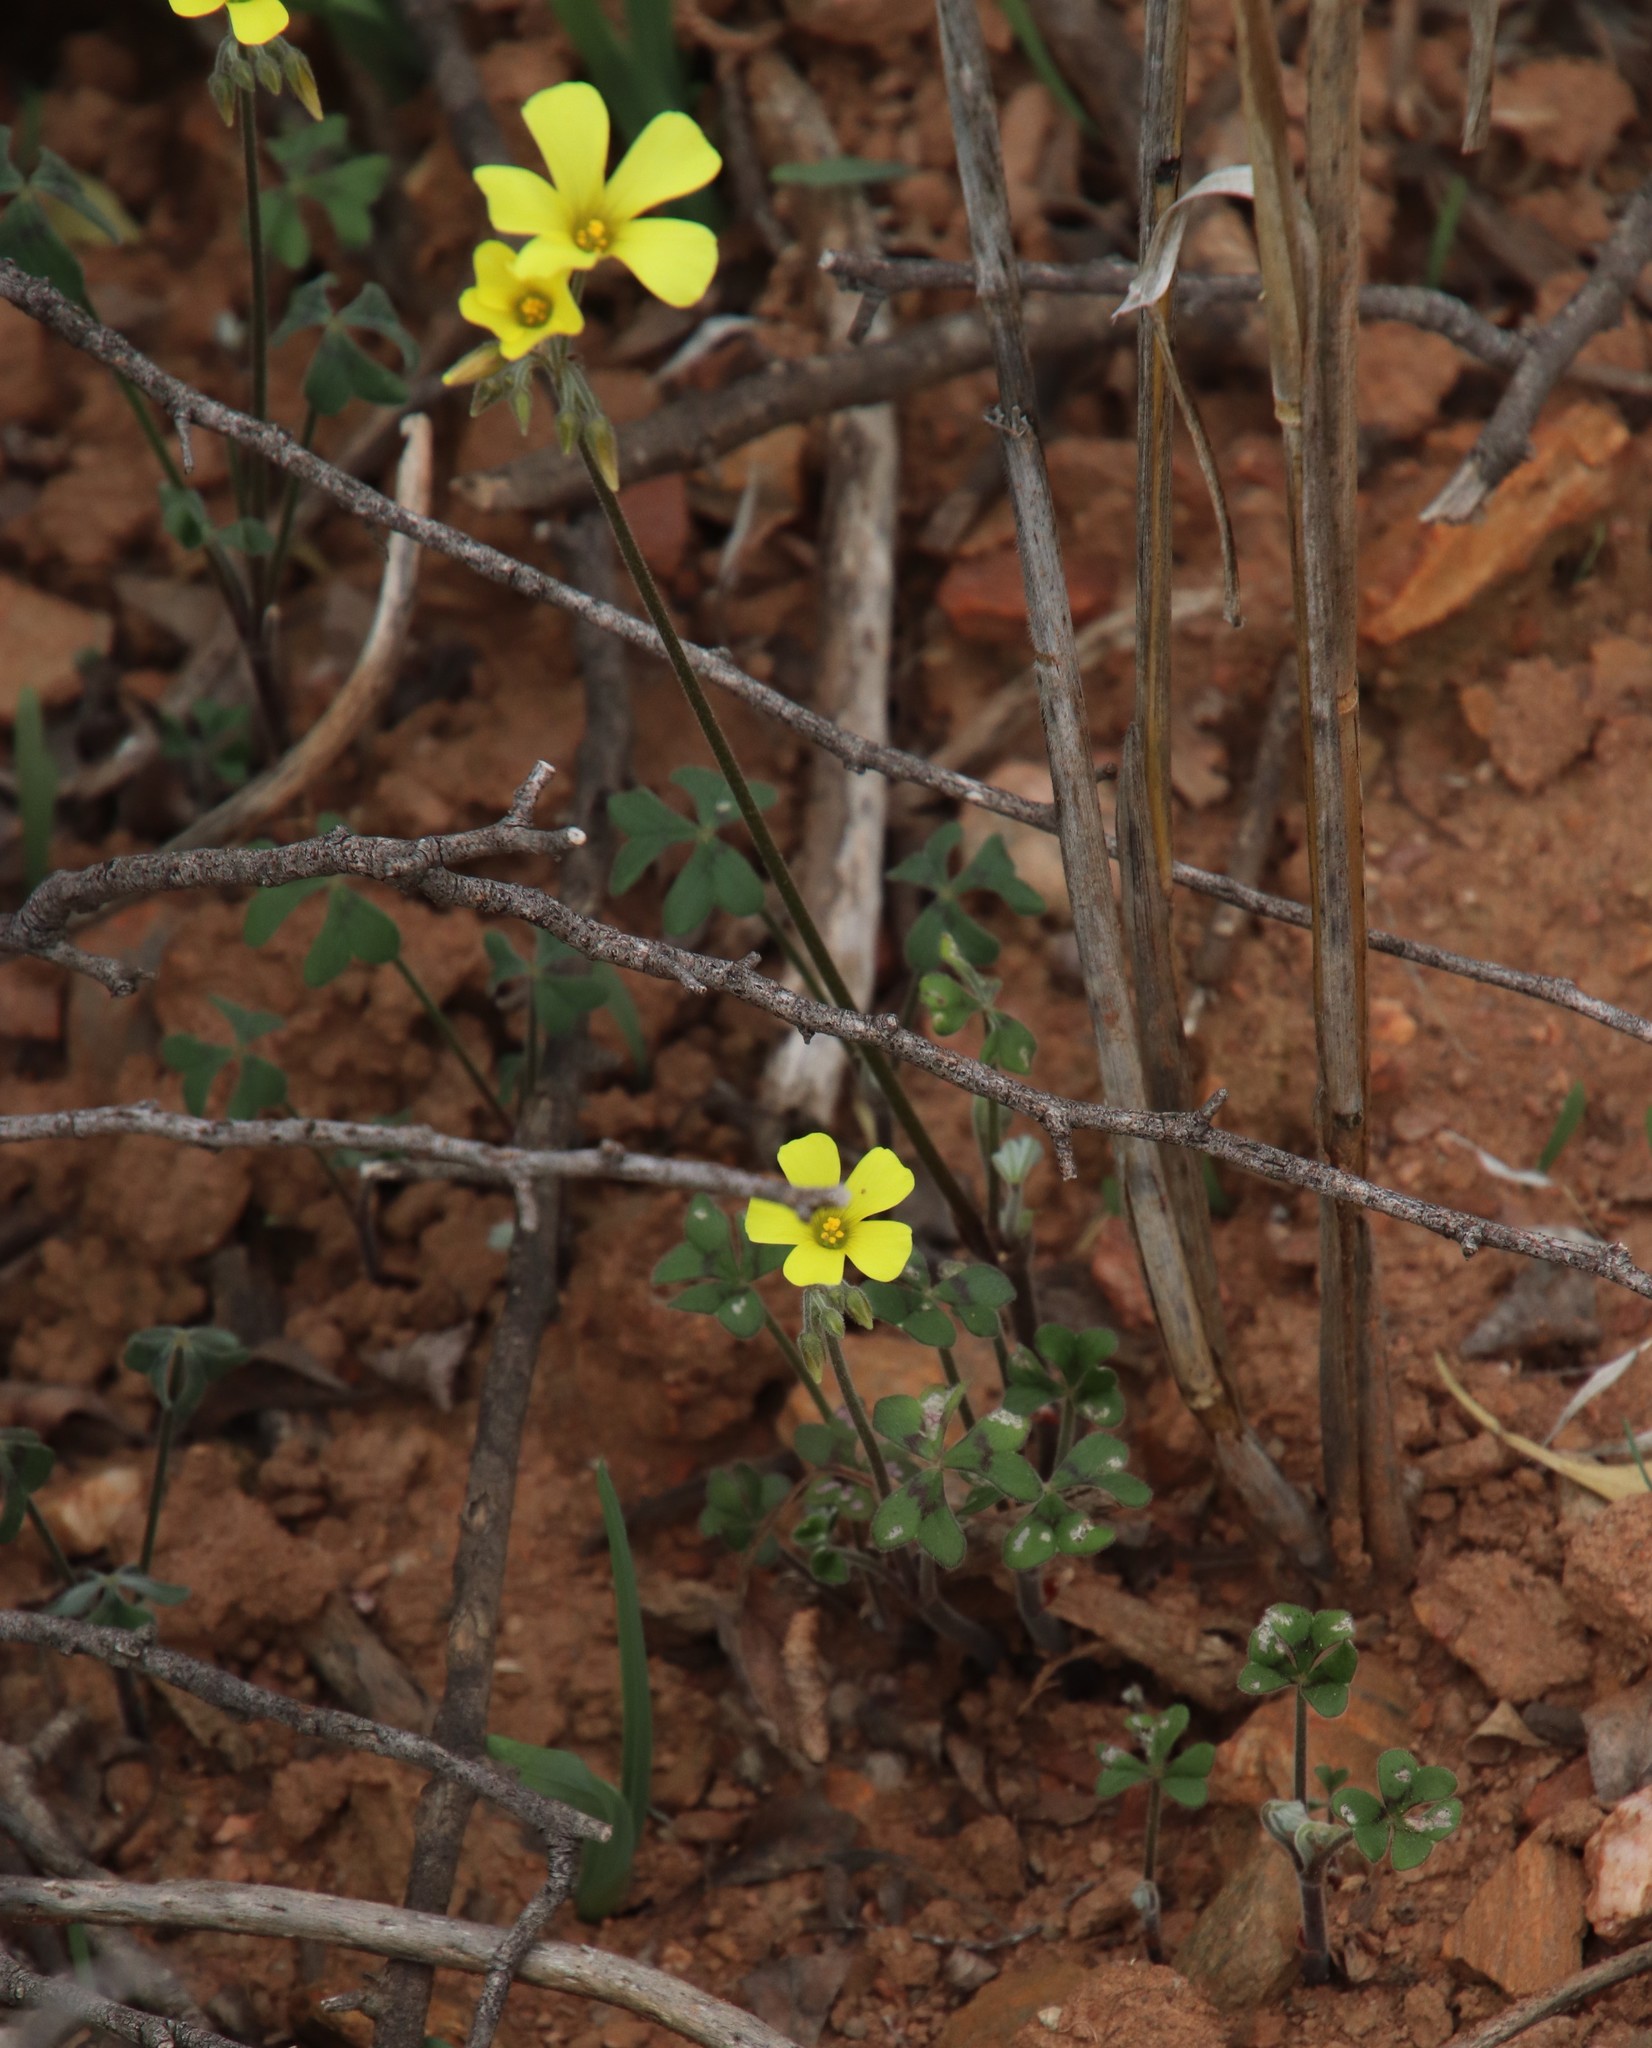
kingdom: Plantae
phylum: Tracheophyta
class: Magnoliopsida
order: Oxalidales
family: Oxalidaceae
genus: Oxalis
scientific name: Oxalis pes-caprae
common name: Bermuda-buttercup
